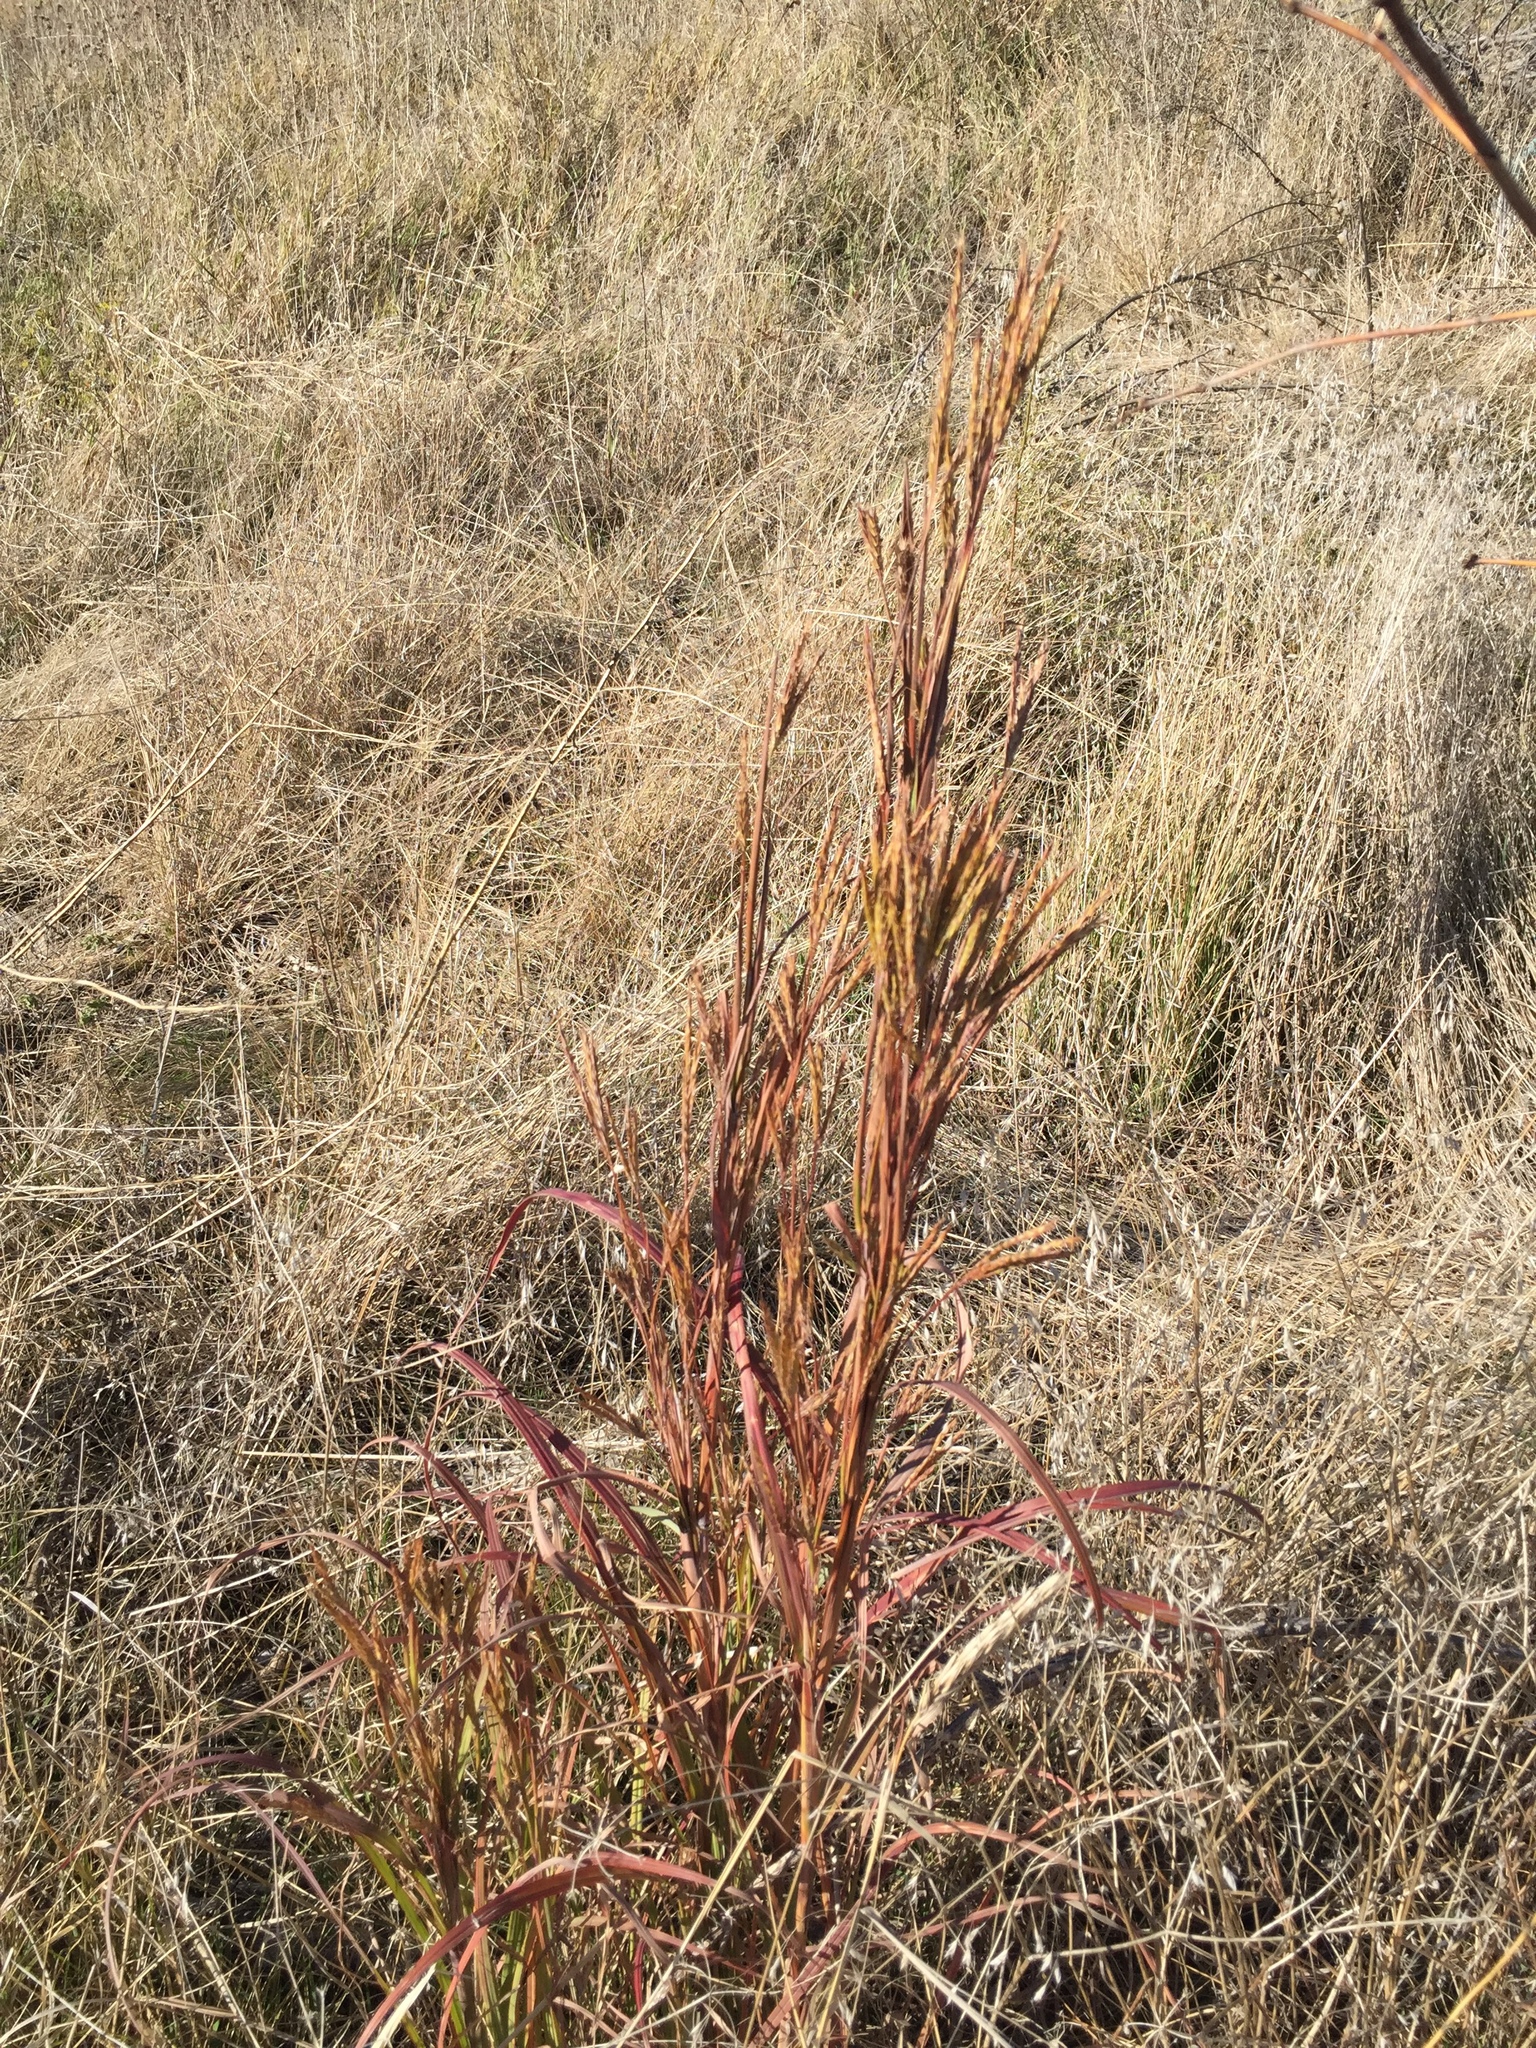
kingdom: Plantae
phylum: Tracheophyta
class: Liliopsida
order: Poales
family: Poaceae
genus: Andropogon
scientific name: Andropogon gerardi
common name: Big bluestem
